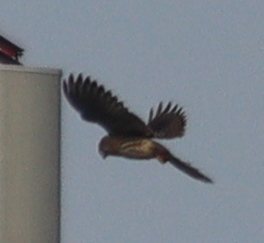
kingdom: Animalia
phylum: Chordata
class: Aves
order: Falconiformes
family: Falconidae
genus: Falco
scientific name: Falco tinnunculus
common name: Common kestrel
